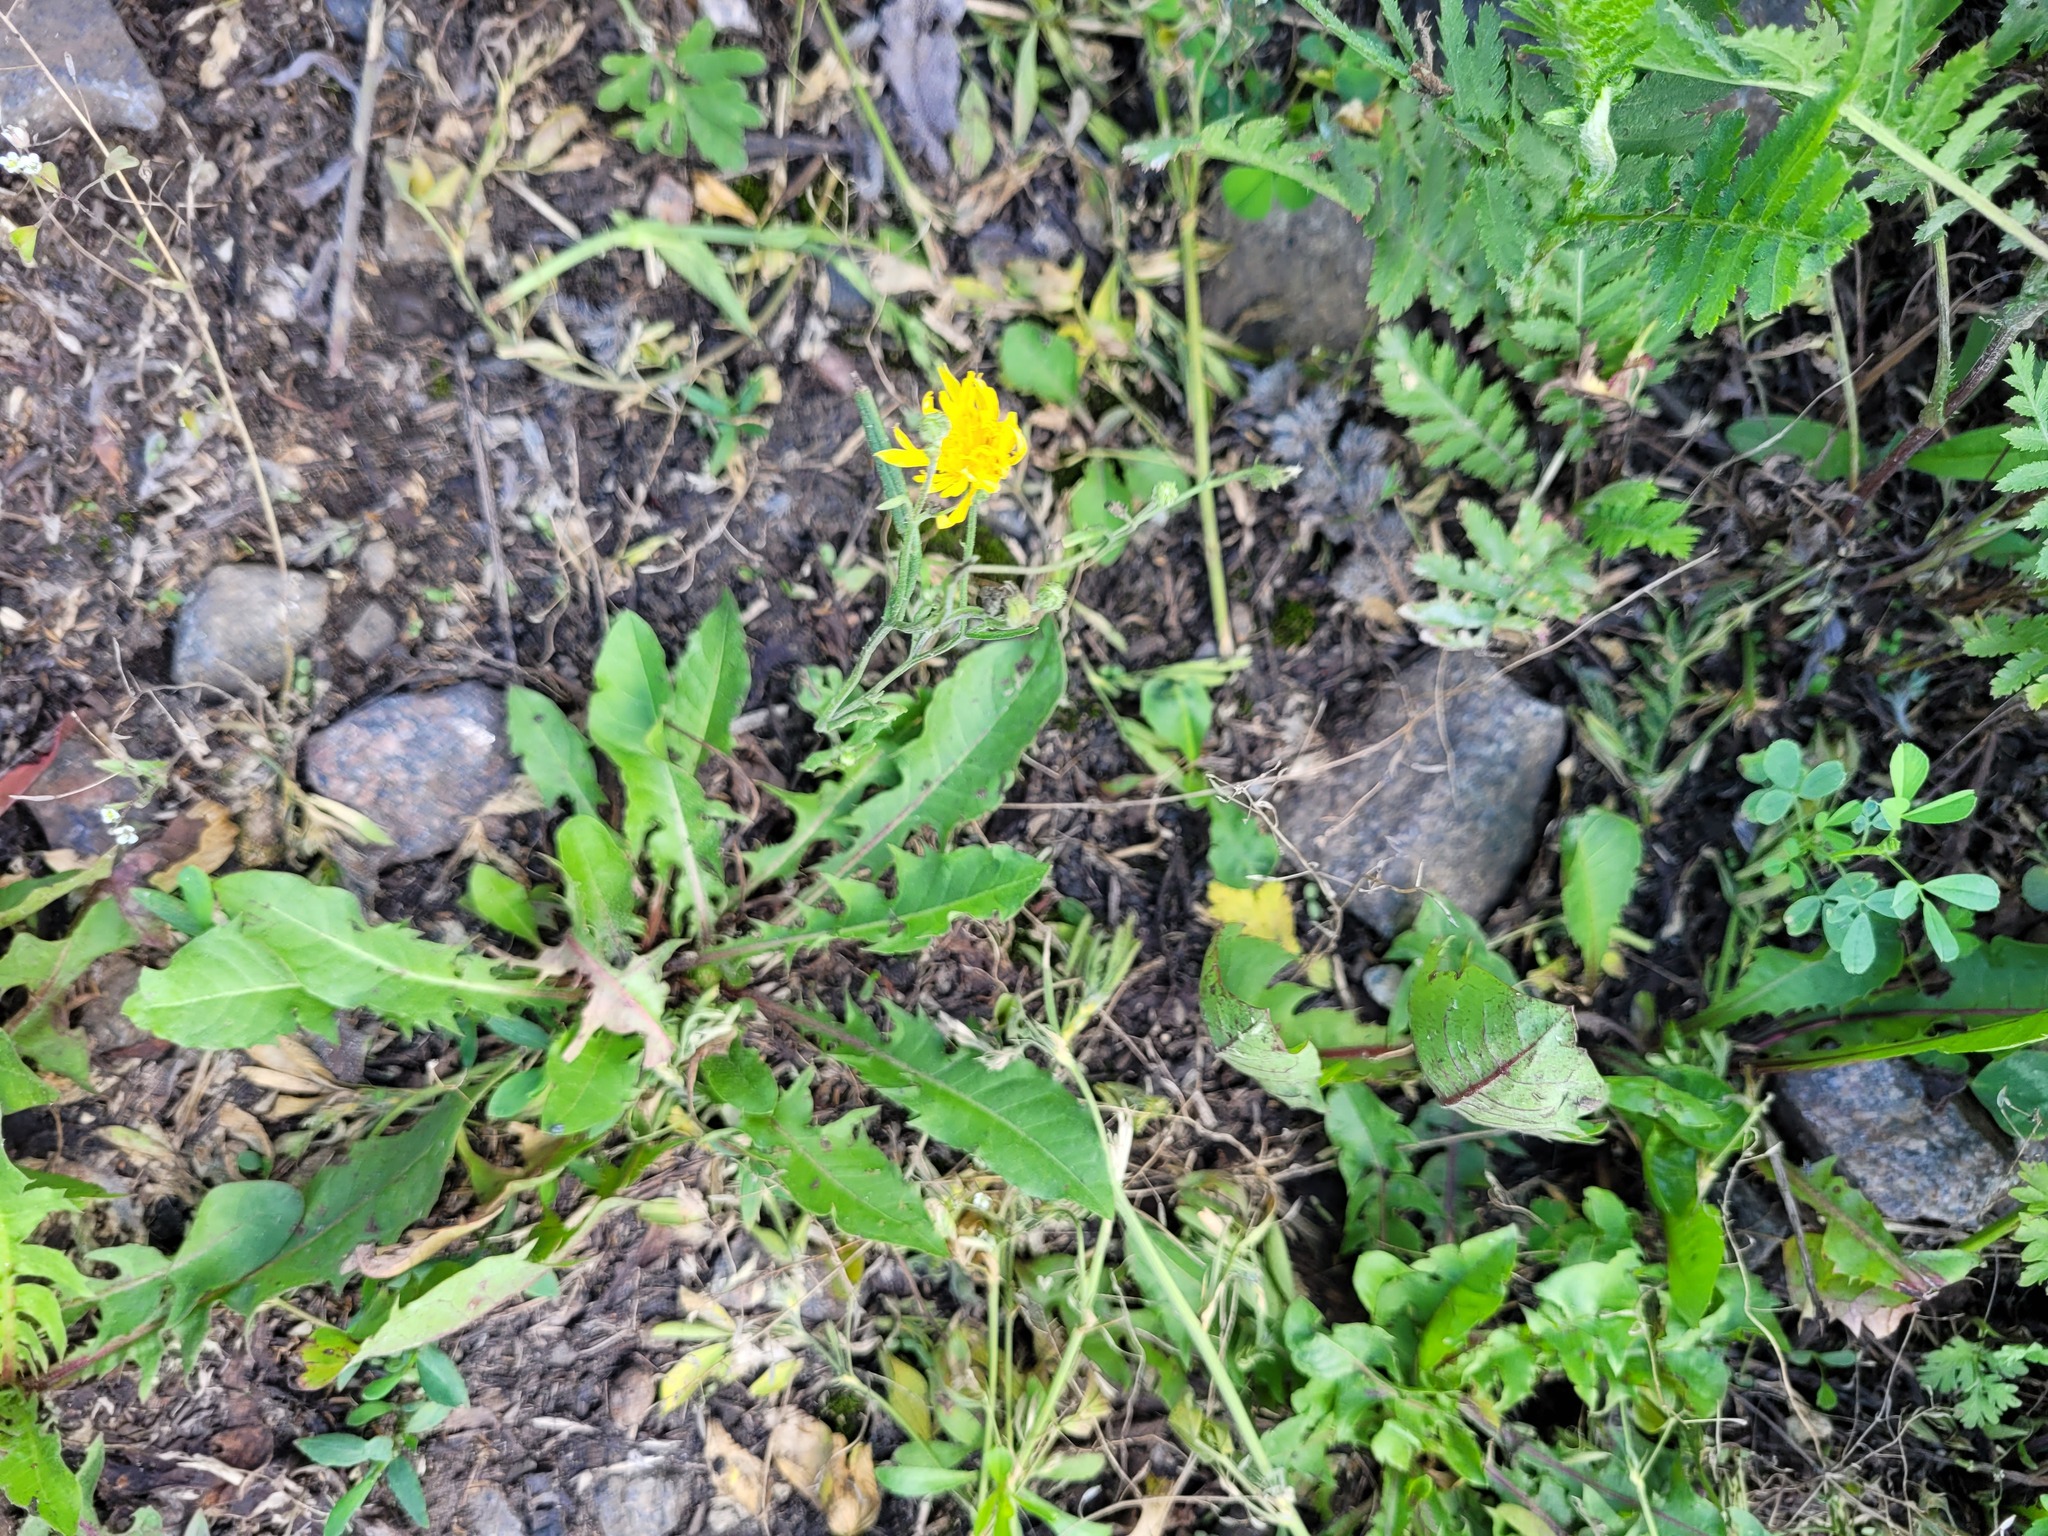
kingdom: Plantae
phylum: Tracheophyta
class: Magnoliopsida
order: Asterales
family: Asteraceae
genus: Crepis
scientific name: Crepis tectorum
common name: Narrow-leaved hawk's-beard
